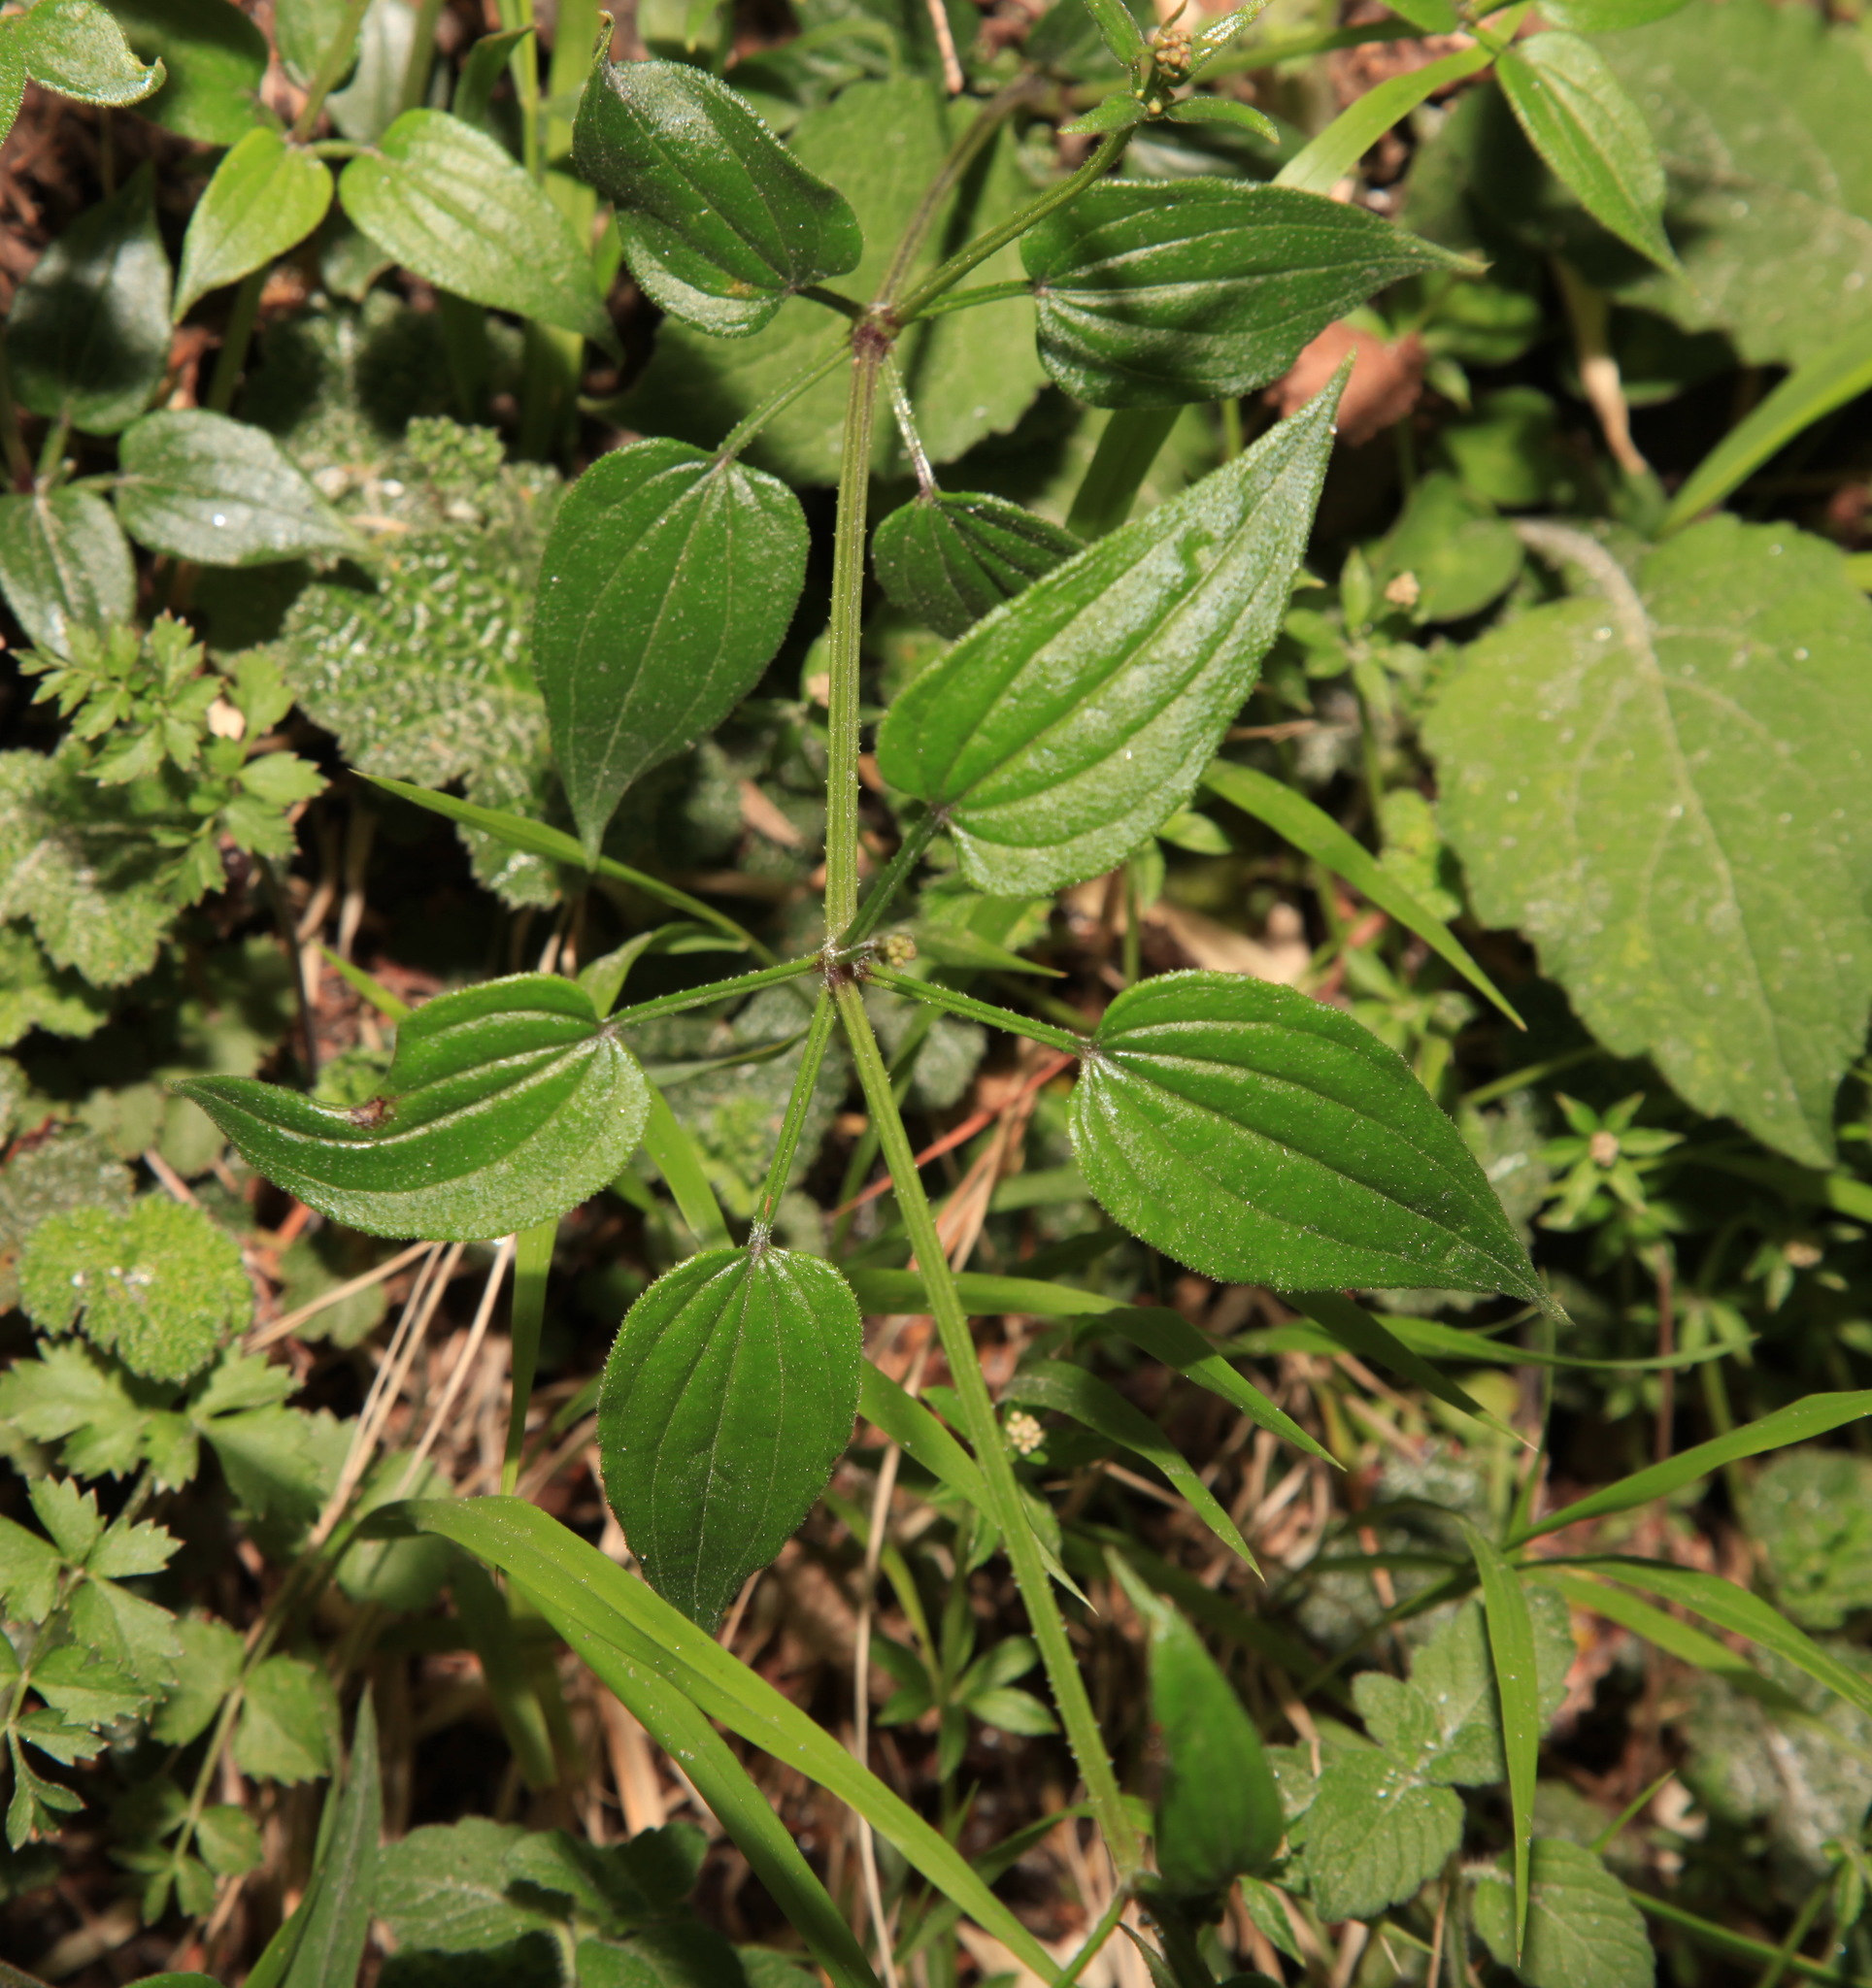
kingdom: Plantae
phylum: Tracheophyta
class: Magnoliopsida
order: Gentianales
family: Rubiaceae
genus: Rubia
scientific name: Rubia linii
